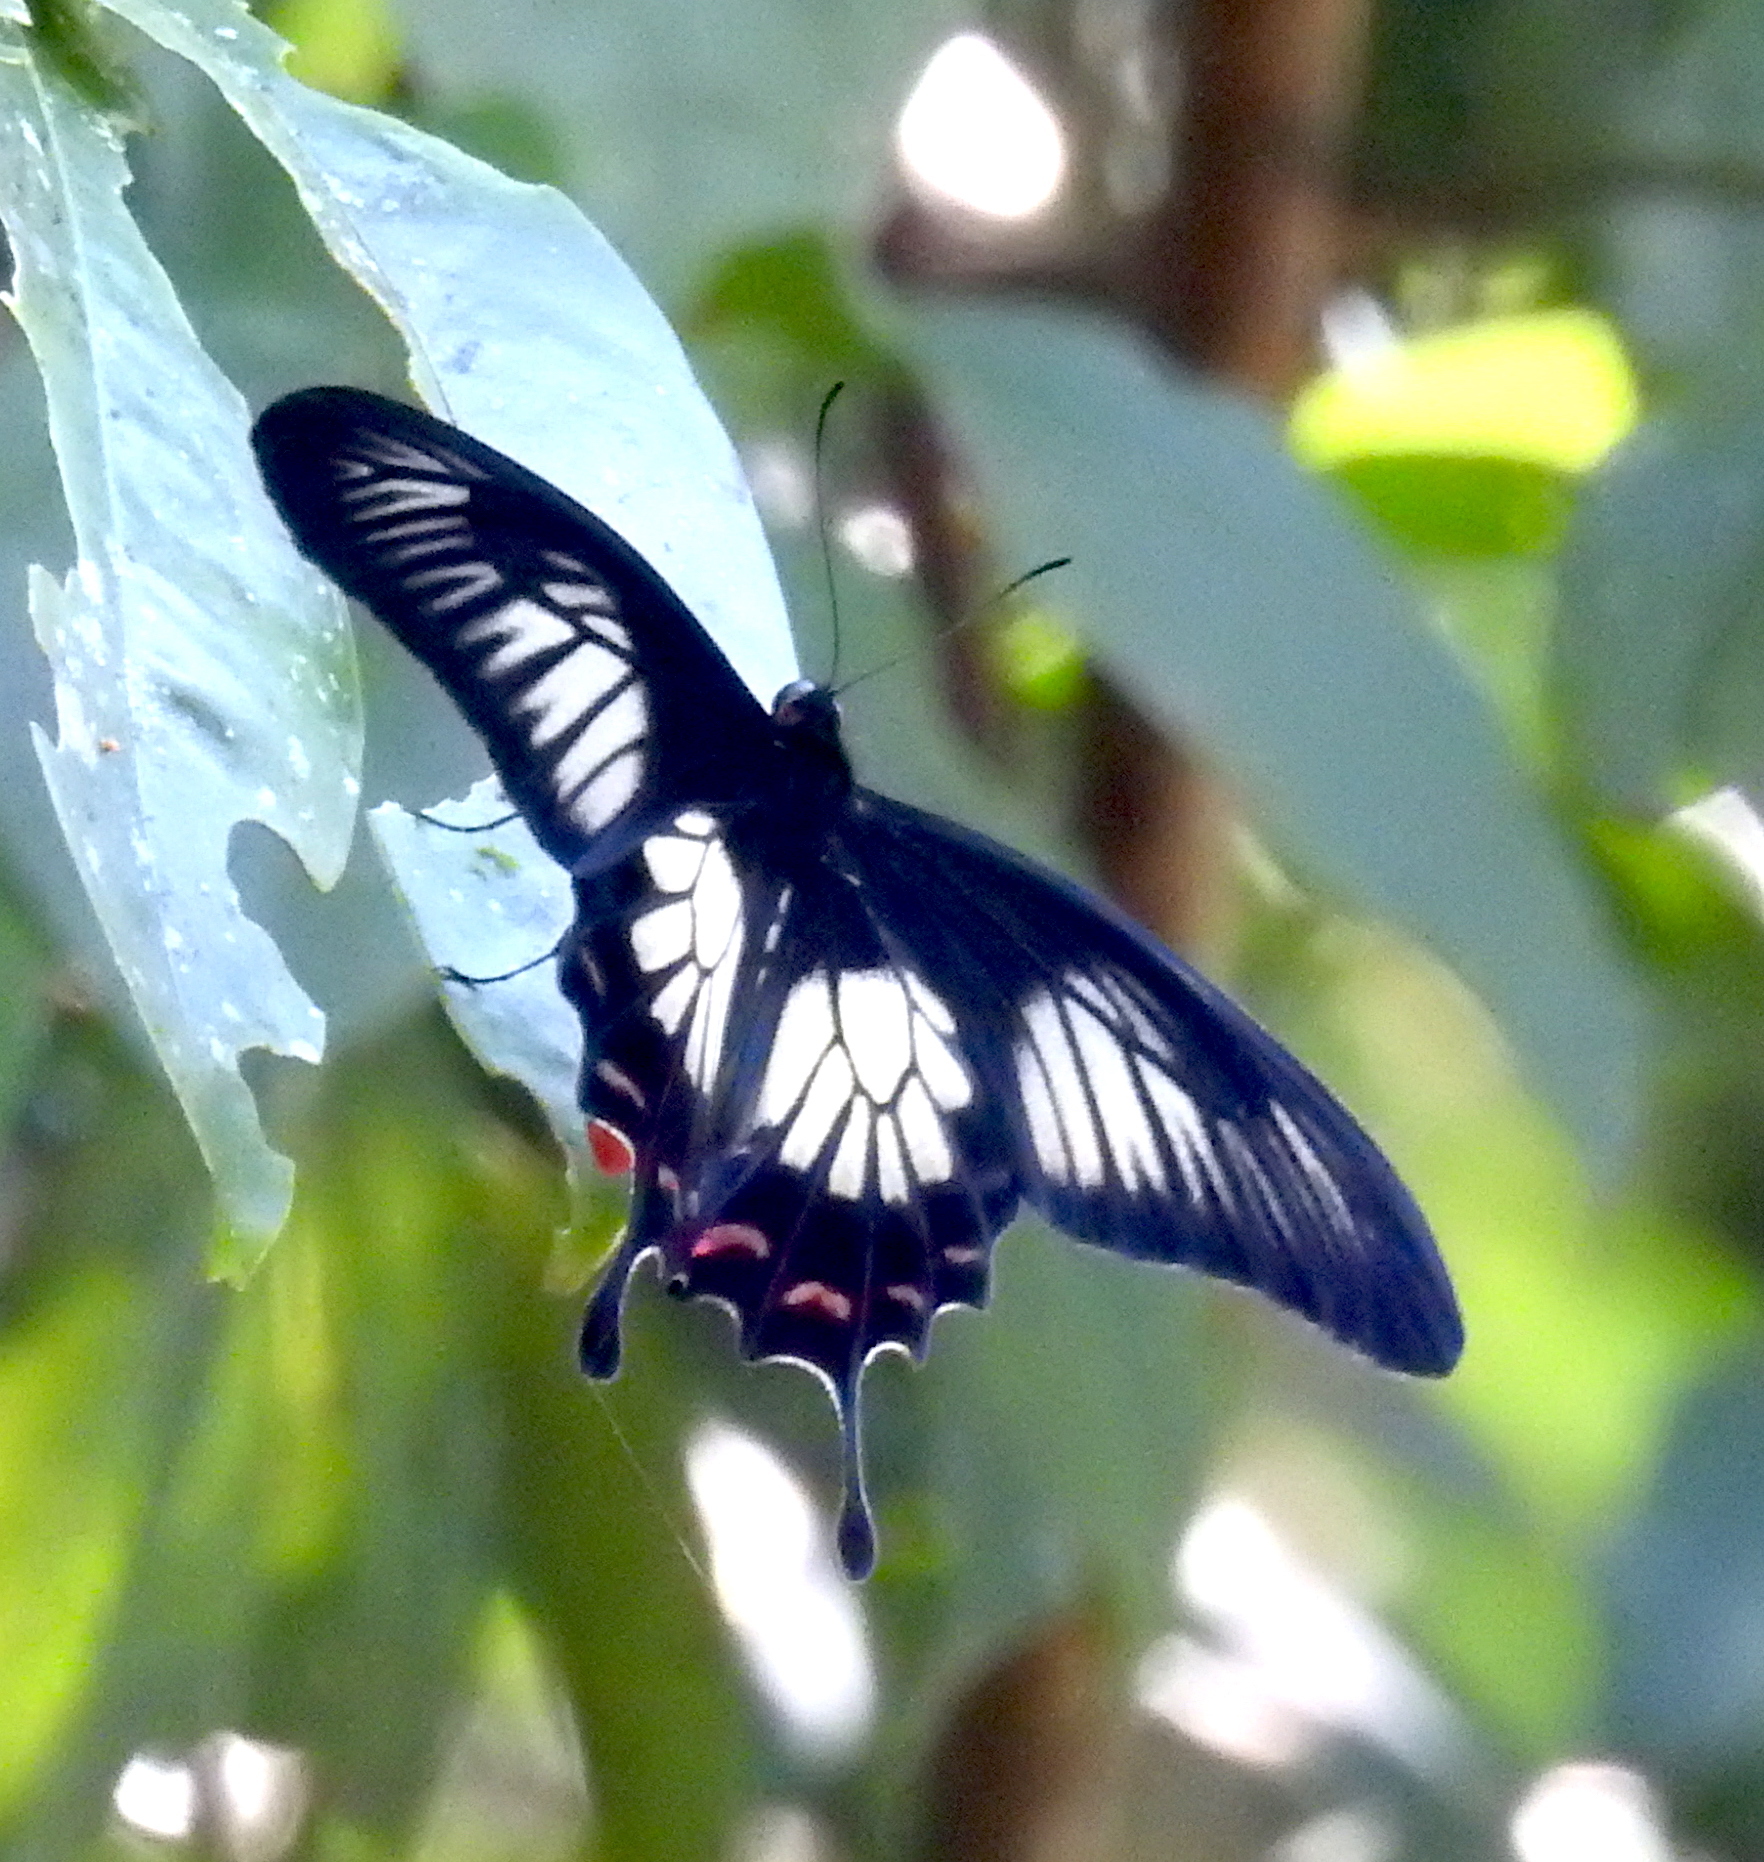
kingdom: Animalia
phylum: Arthropoda
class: Insecta
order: Lepidoptera
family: Papilionidae
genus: Pachliopta
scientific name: Pachliopta jophon
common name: Malabar rose
